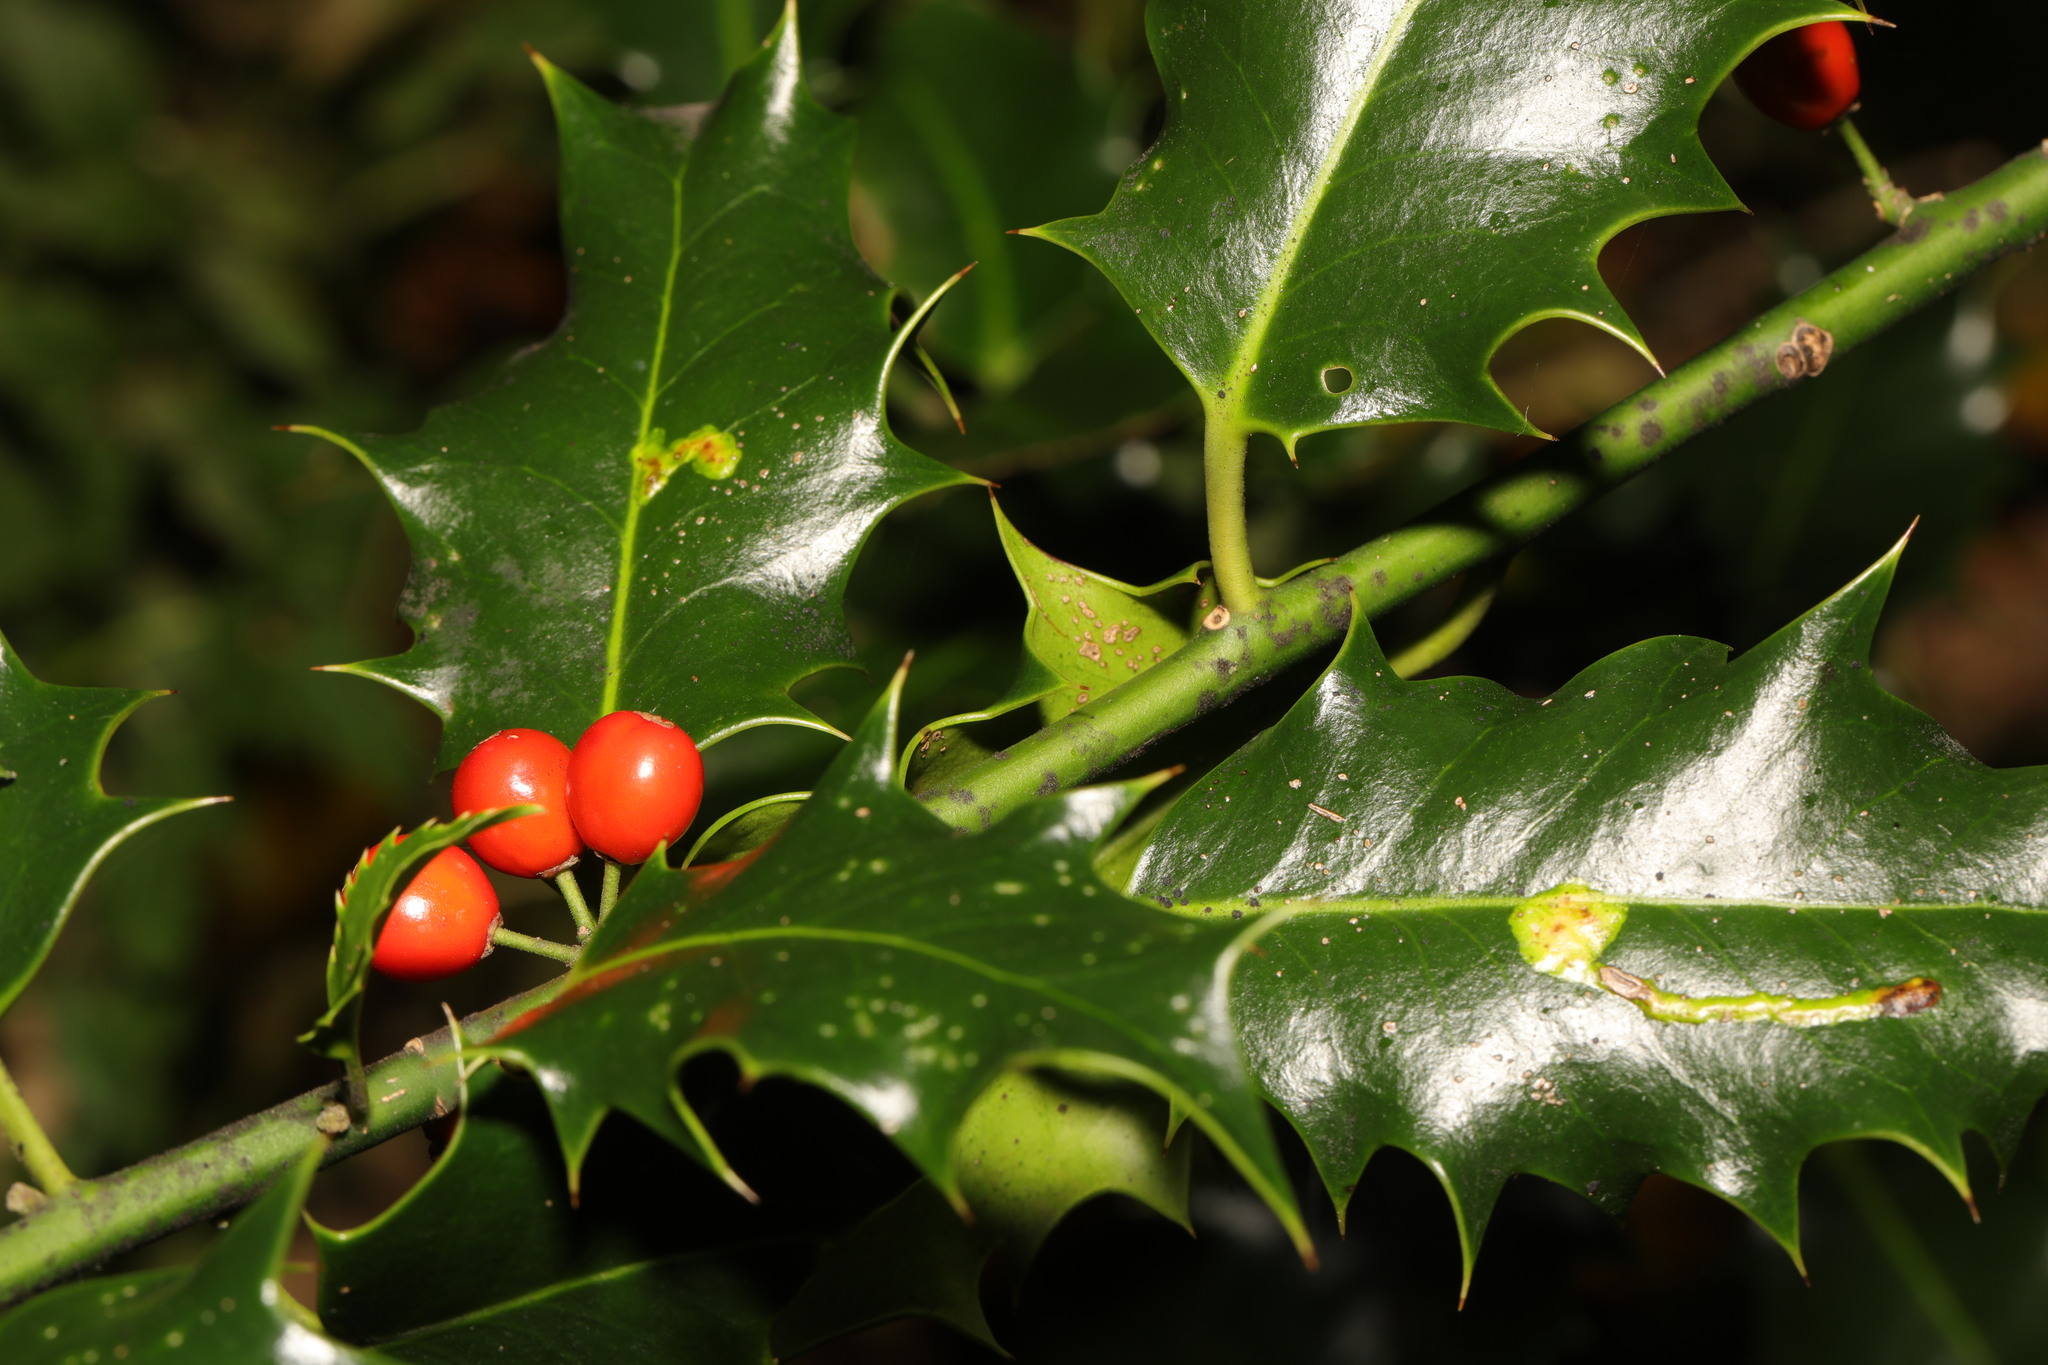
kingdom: Plantae
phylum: Tracheophyta
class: Magnoliopsida
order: Aquifoliales
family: Aquifoliaceae
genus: Ilex
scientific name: Ilex aquifolium
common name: English holly
